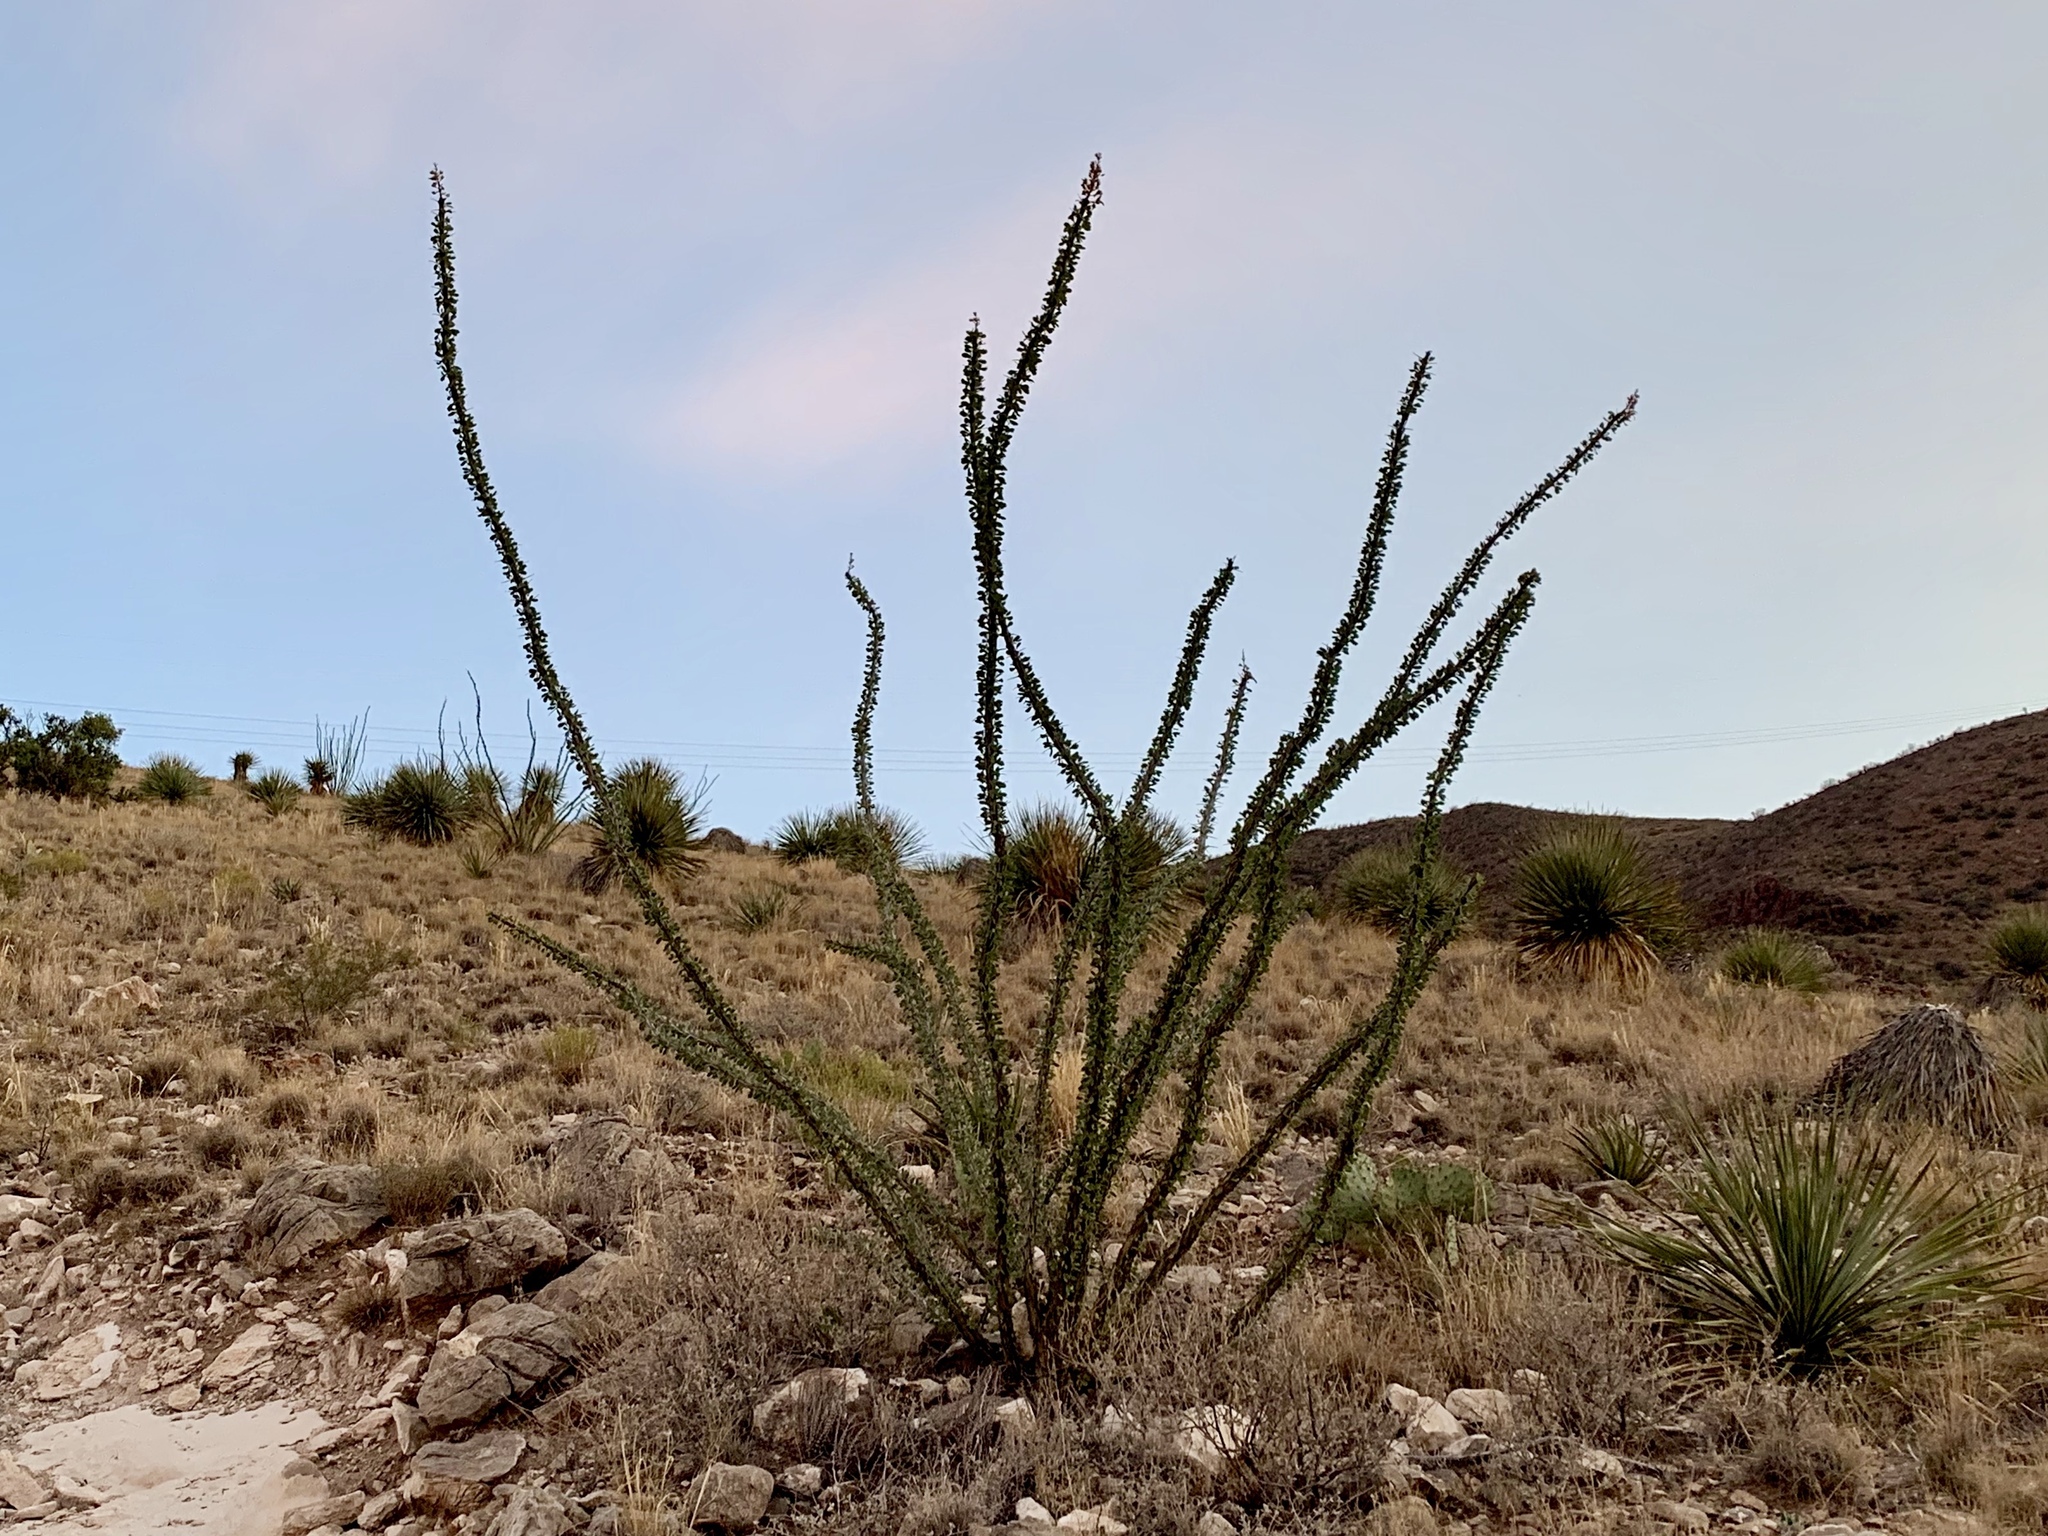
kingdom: Plantae
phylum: Tracheophyta
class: Magnoliopsida
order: Ericales
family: Fouquieriaceae
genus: Fouquieria
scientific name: Fouquieria splendens
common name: Vine-cactus
